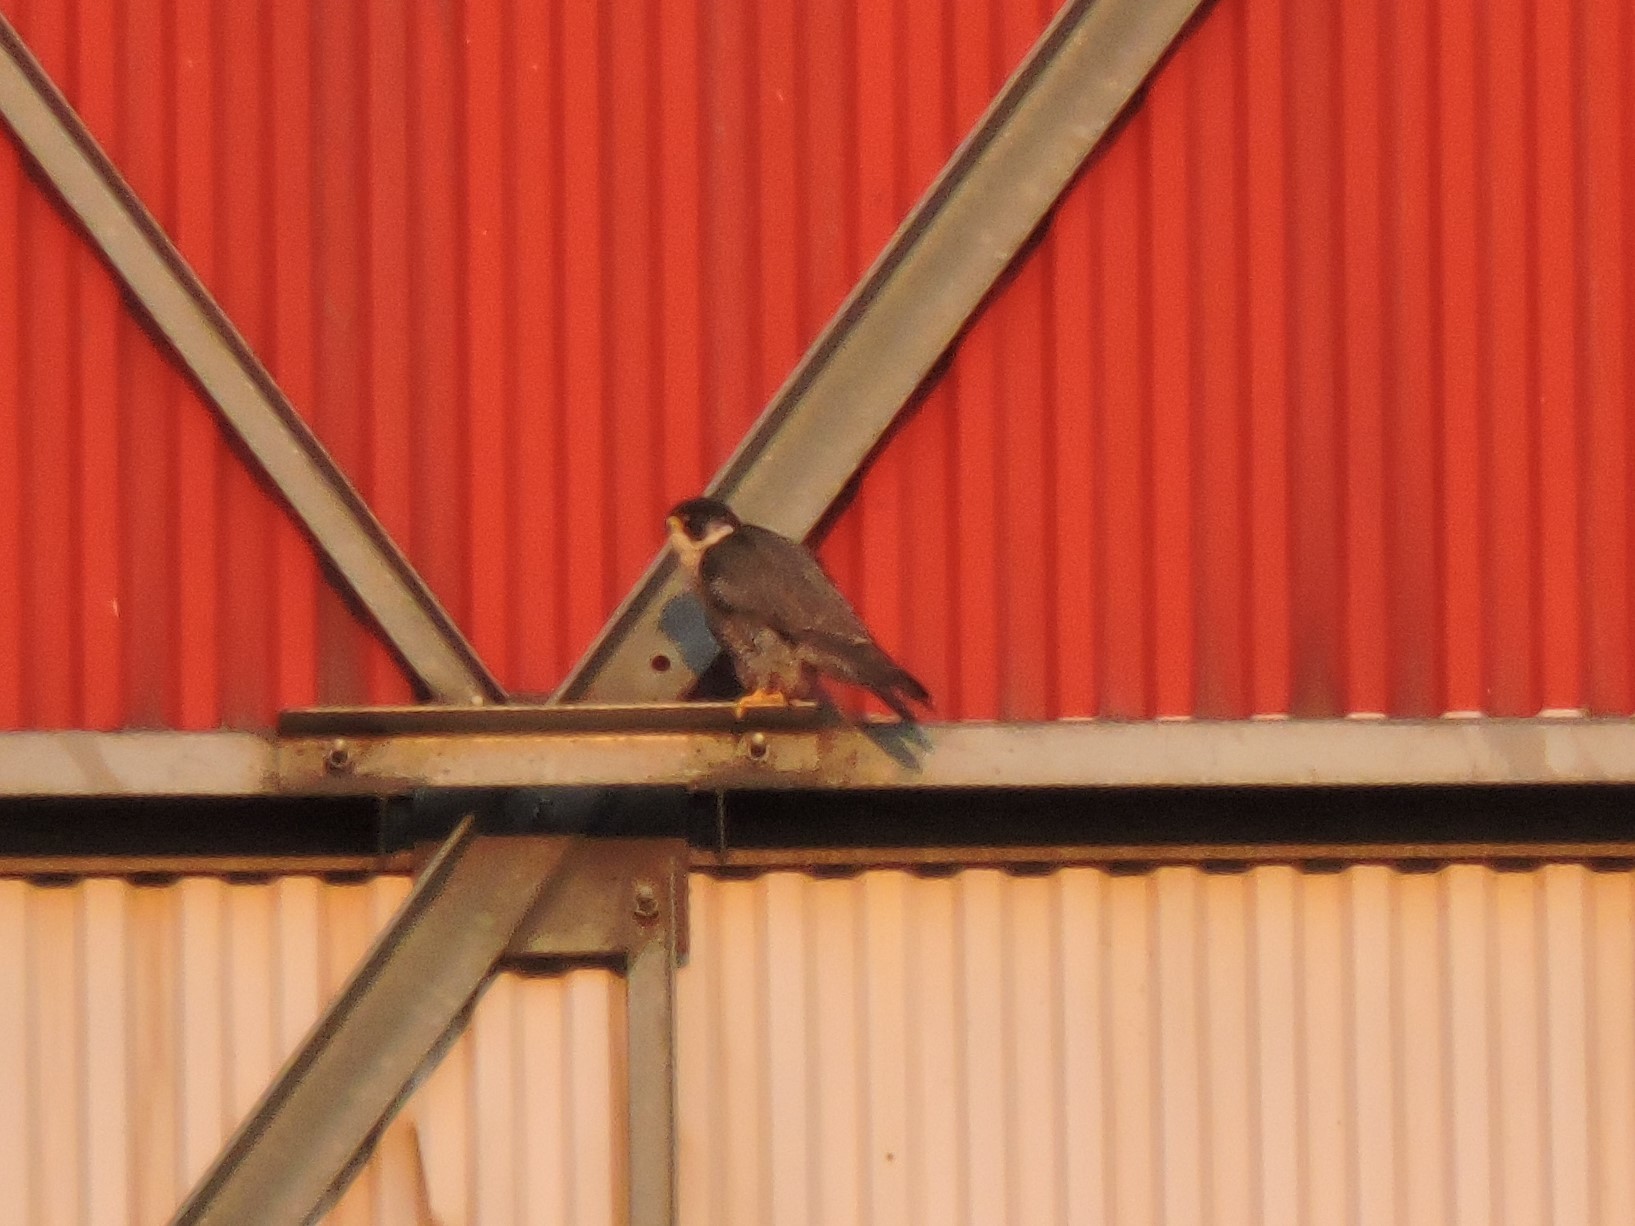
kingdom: Animalia
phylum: Chordata
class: Aves
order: Falconiformes
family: Falconidae
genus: Falco
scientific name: Falco peregrinus
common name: Peregrine falcon
